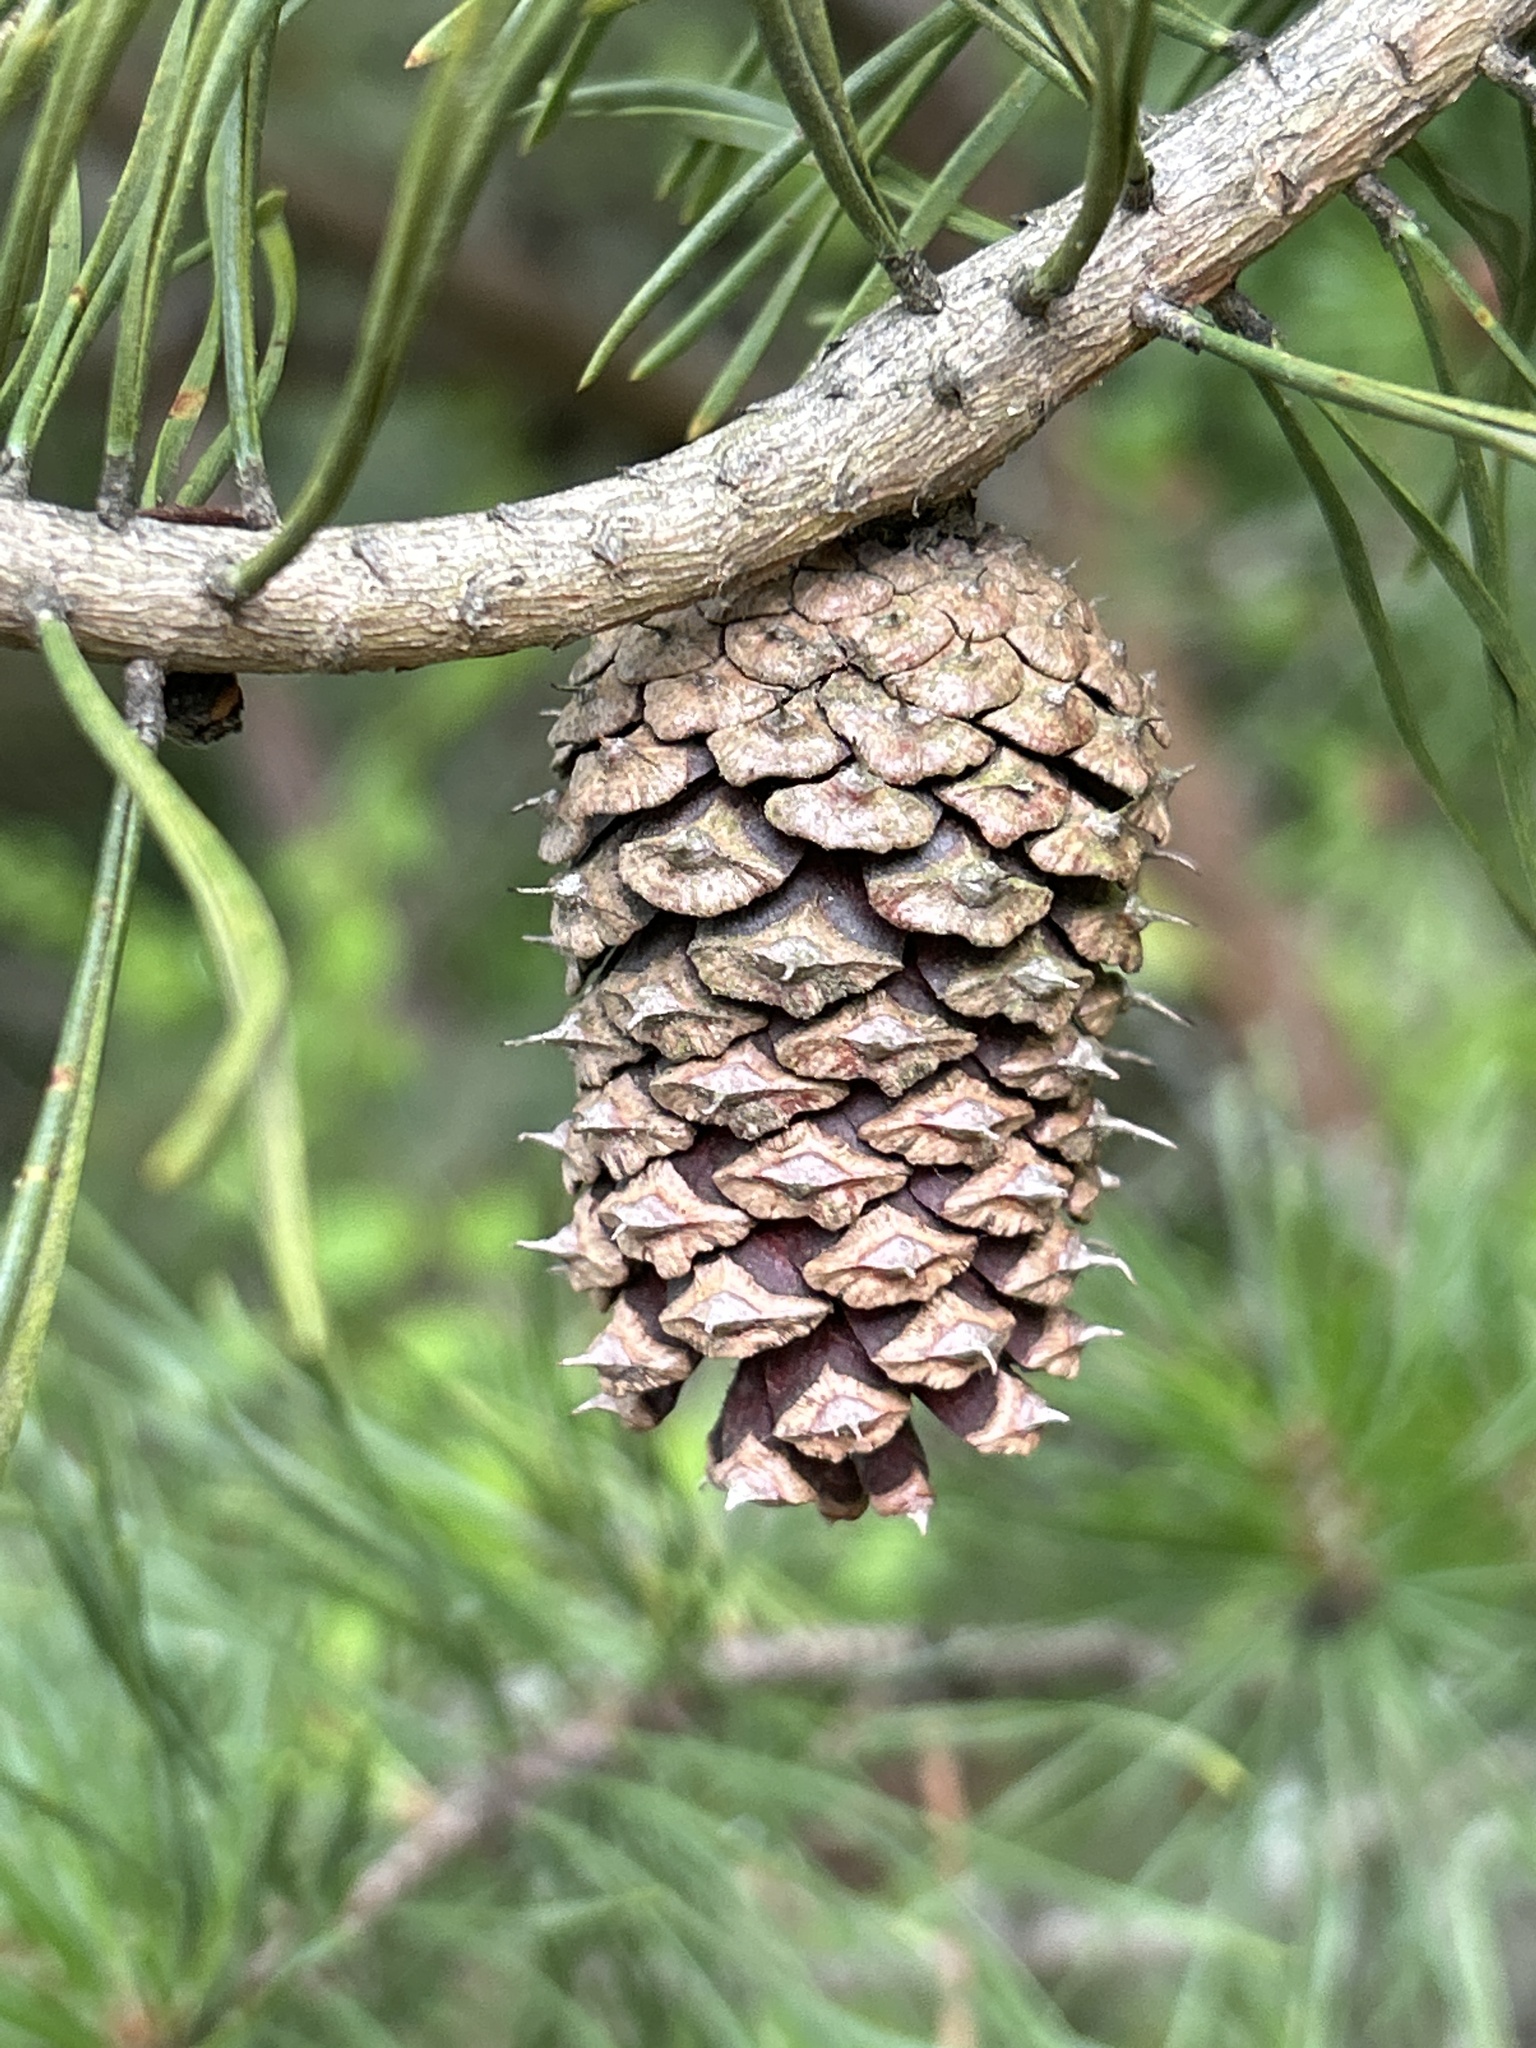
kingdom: Plantae
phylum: Tracheophyta
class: Pinopsida
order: Pinales
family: Pinaceae
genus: Pinus
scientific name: Pinus virginiana
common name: Scrub pine
